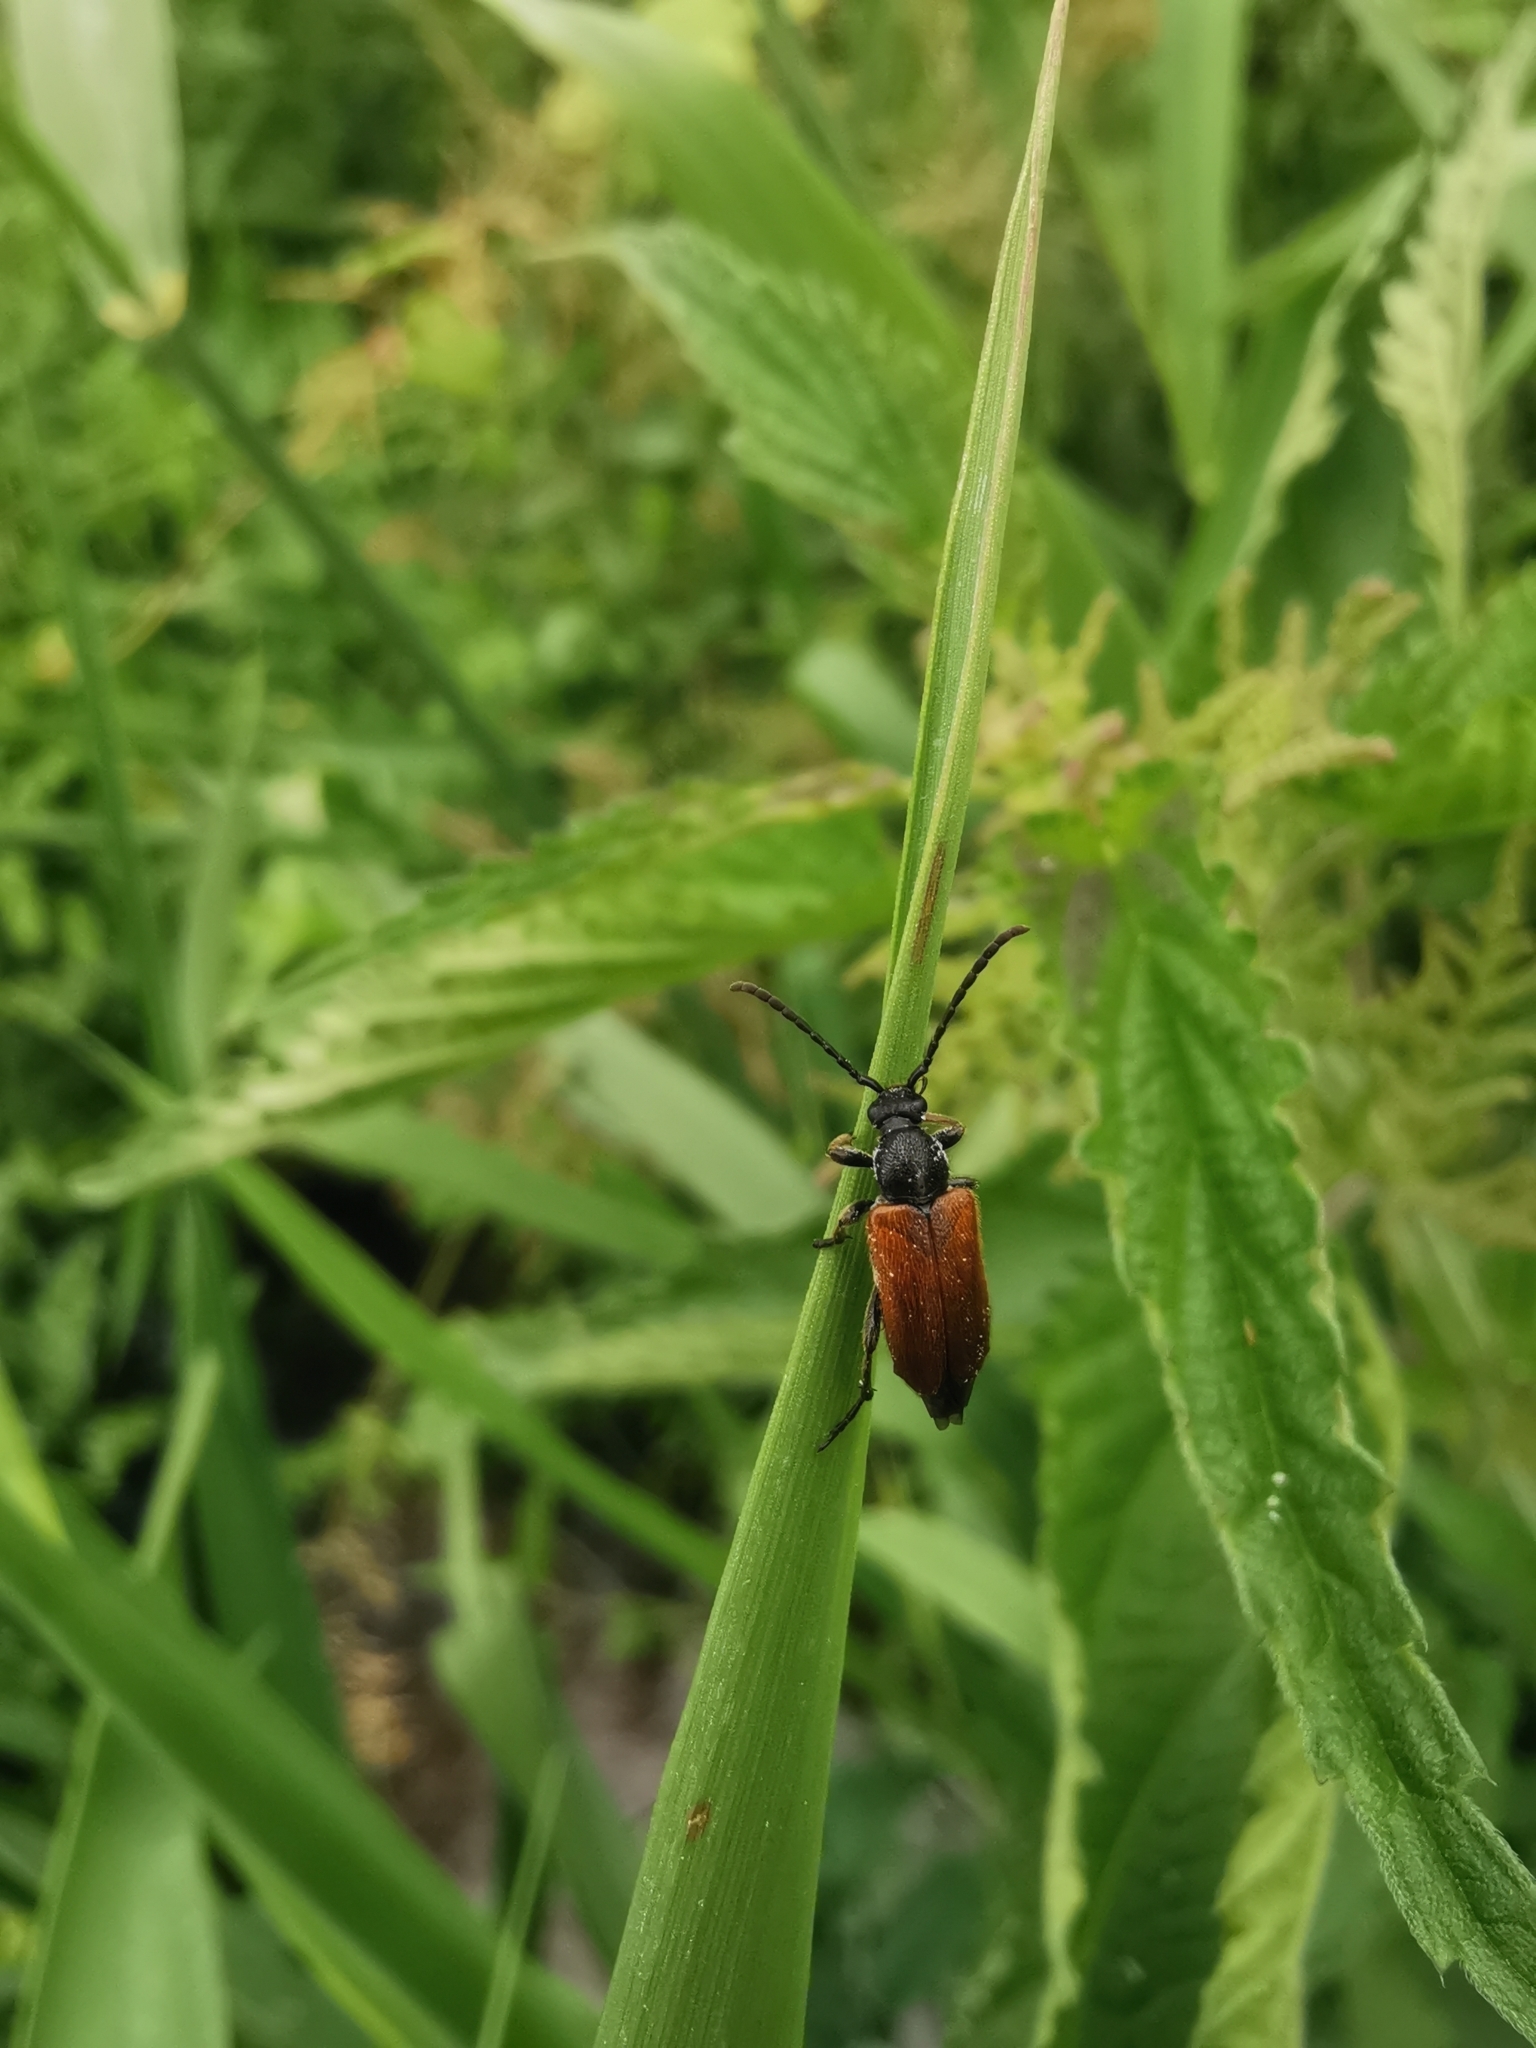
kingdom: Animalia
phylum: Arthropoda
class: Insecta
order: Coleoptera
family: Cerambycidae
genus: Pseudovadonia
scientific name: Pseudovadonia livida
